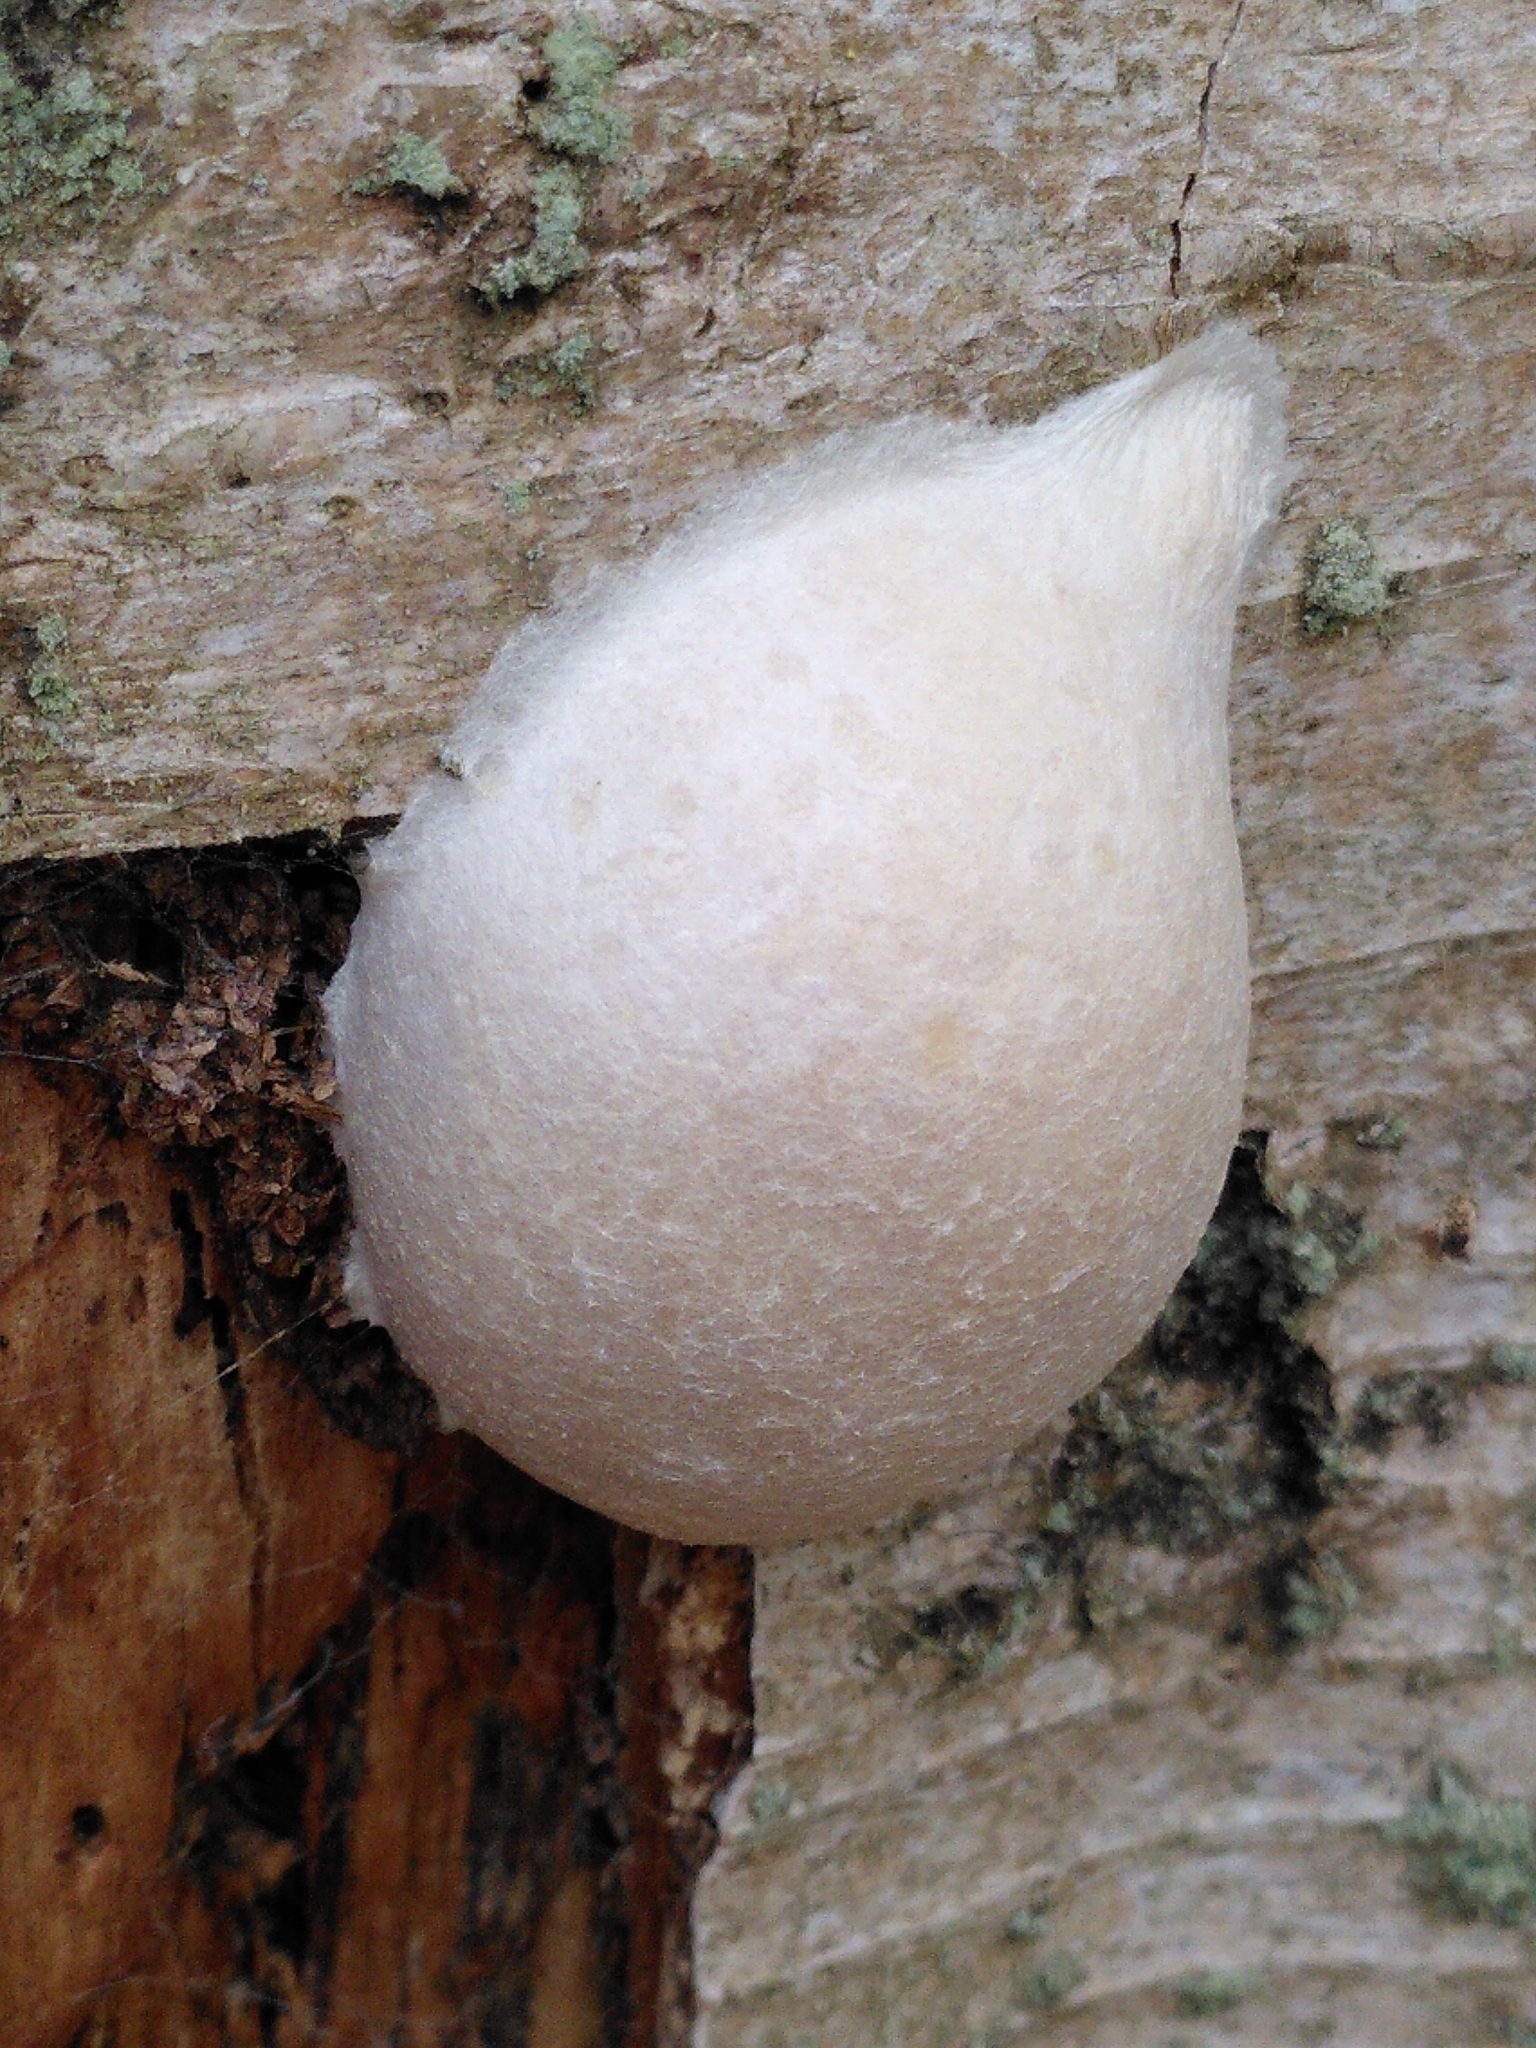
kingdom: Protozoa
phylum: Mycetozoa
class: Myxomycetes
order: Cribrariales
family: Tubiferaceae
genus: Reticularia
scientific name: Reticularia lycoperdon
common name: False puffball
